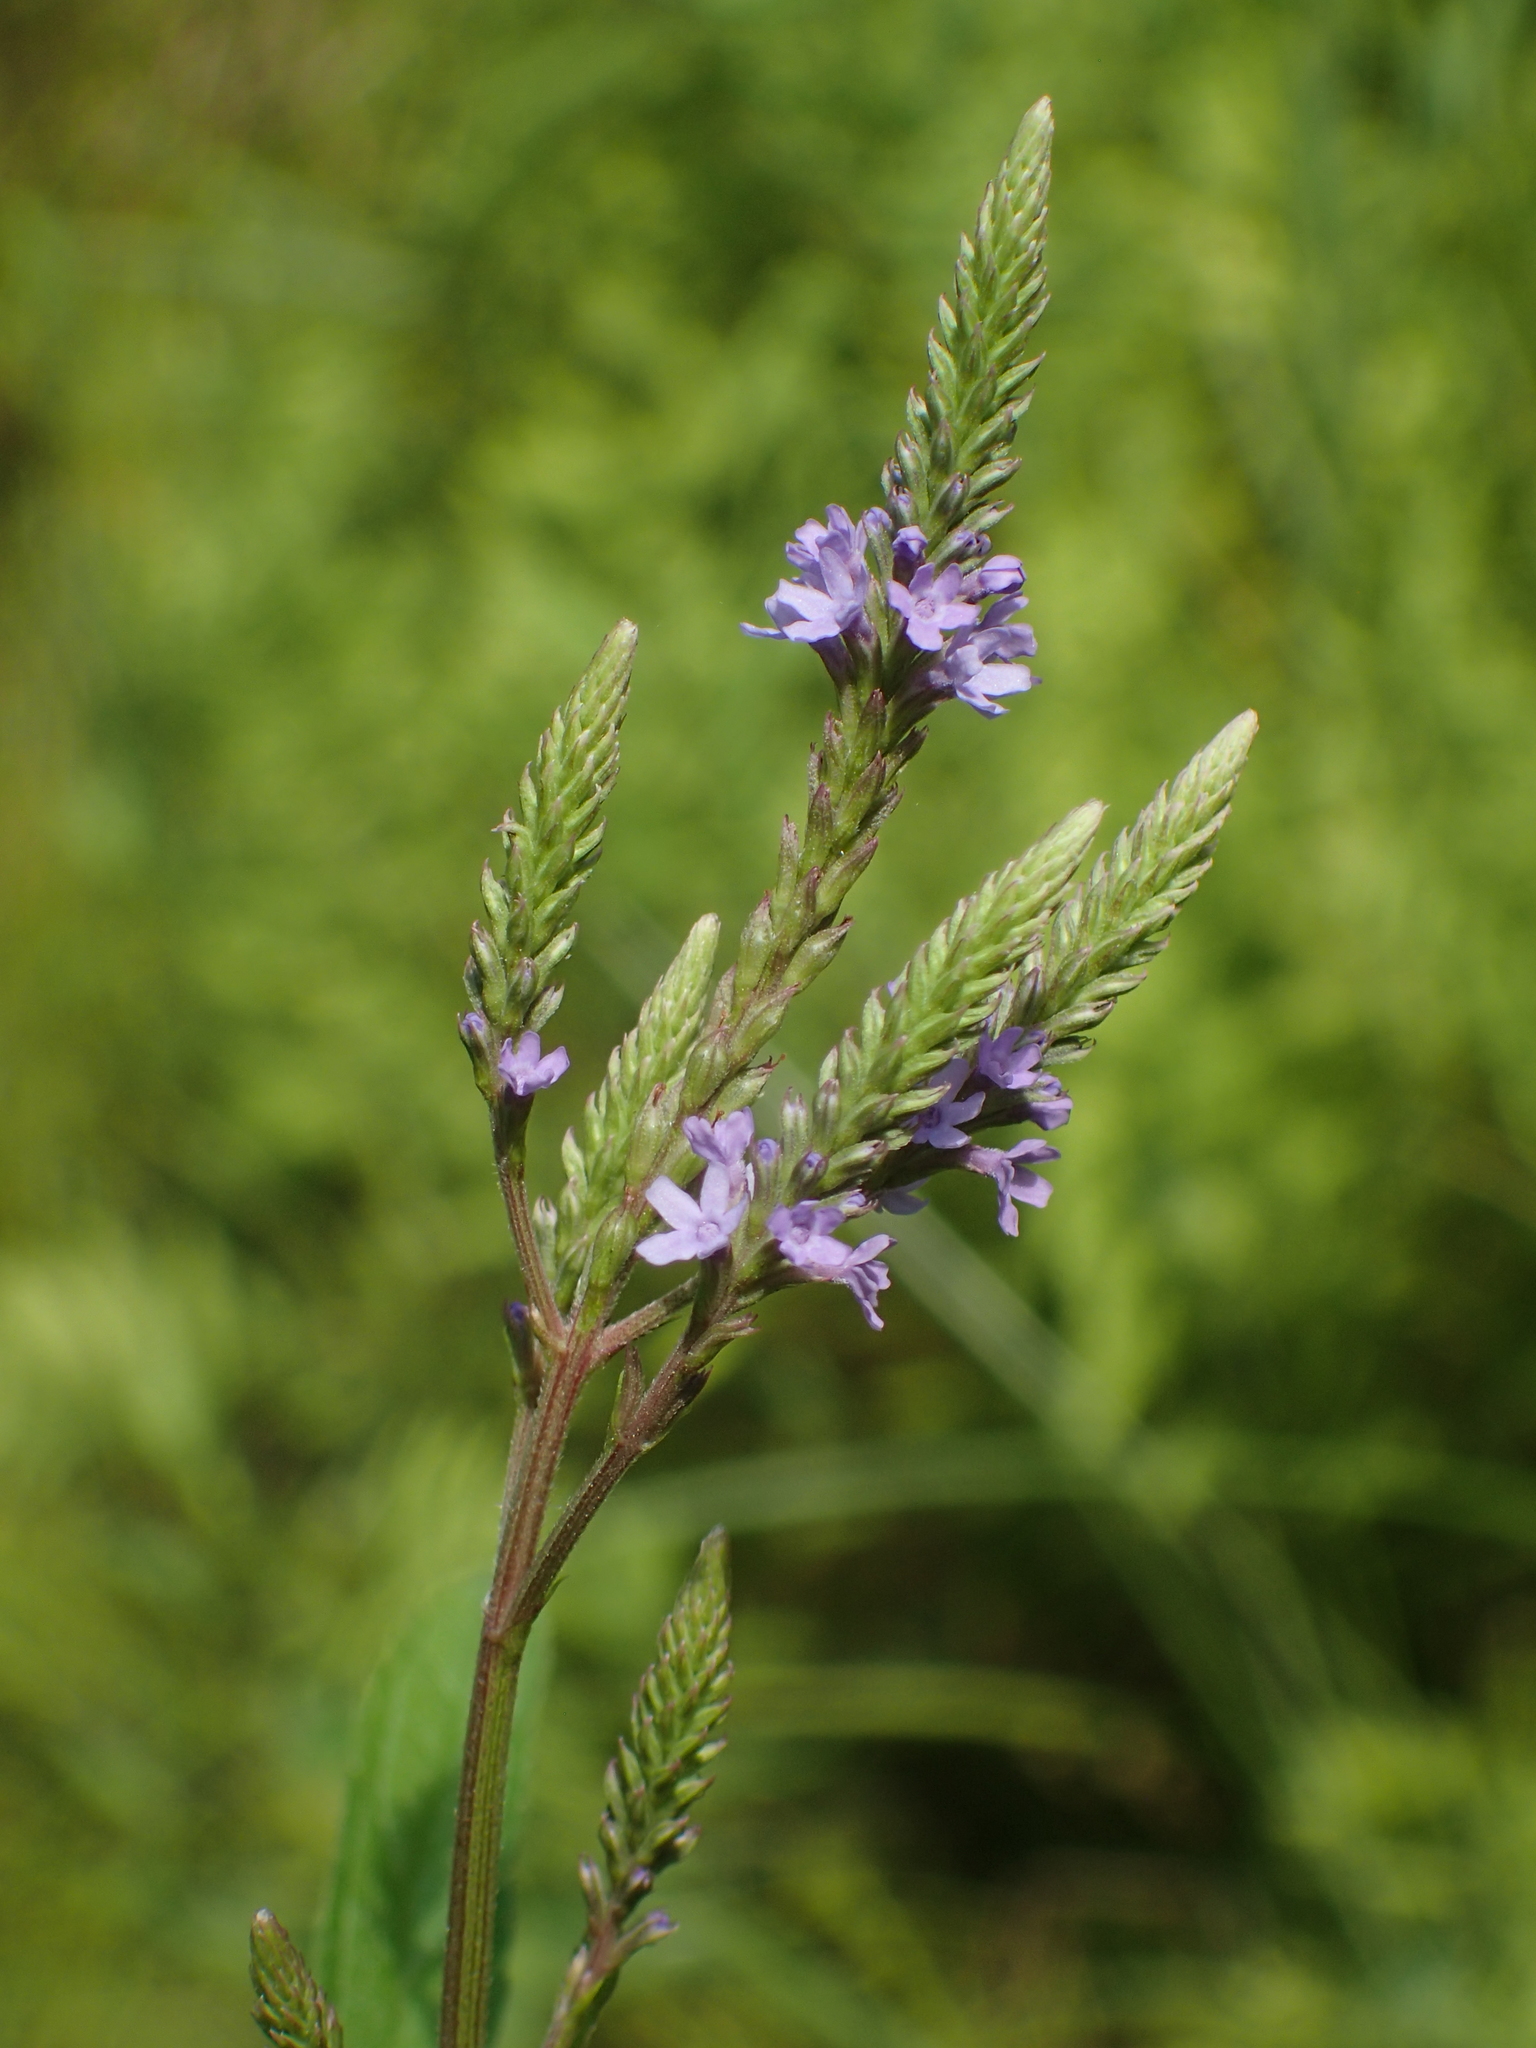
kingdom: Plantae
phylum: Tracheophyta
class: Magnoliopsida
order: Lamiales
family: Verbenaceae
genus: Verbena
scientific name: Verbena hastata
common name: American blue vervain
